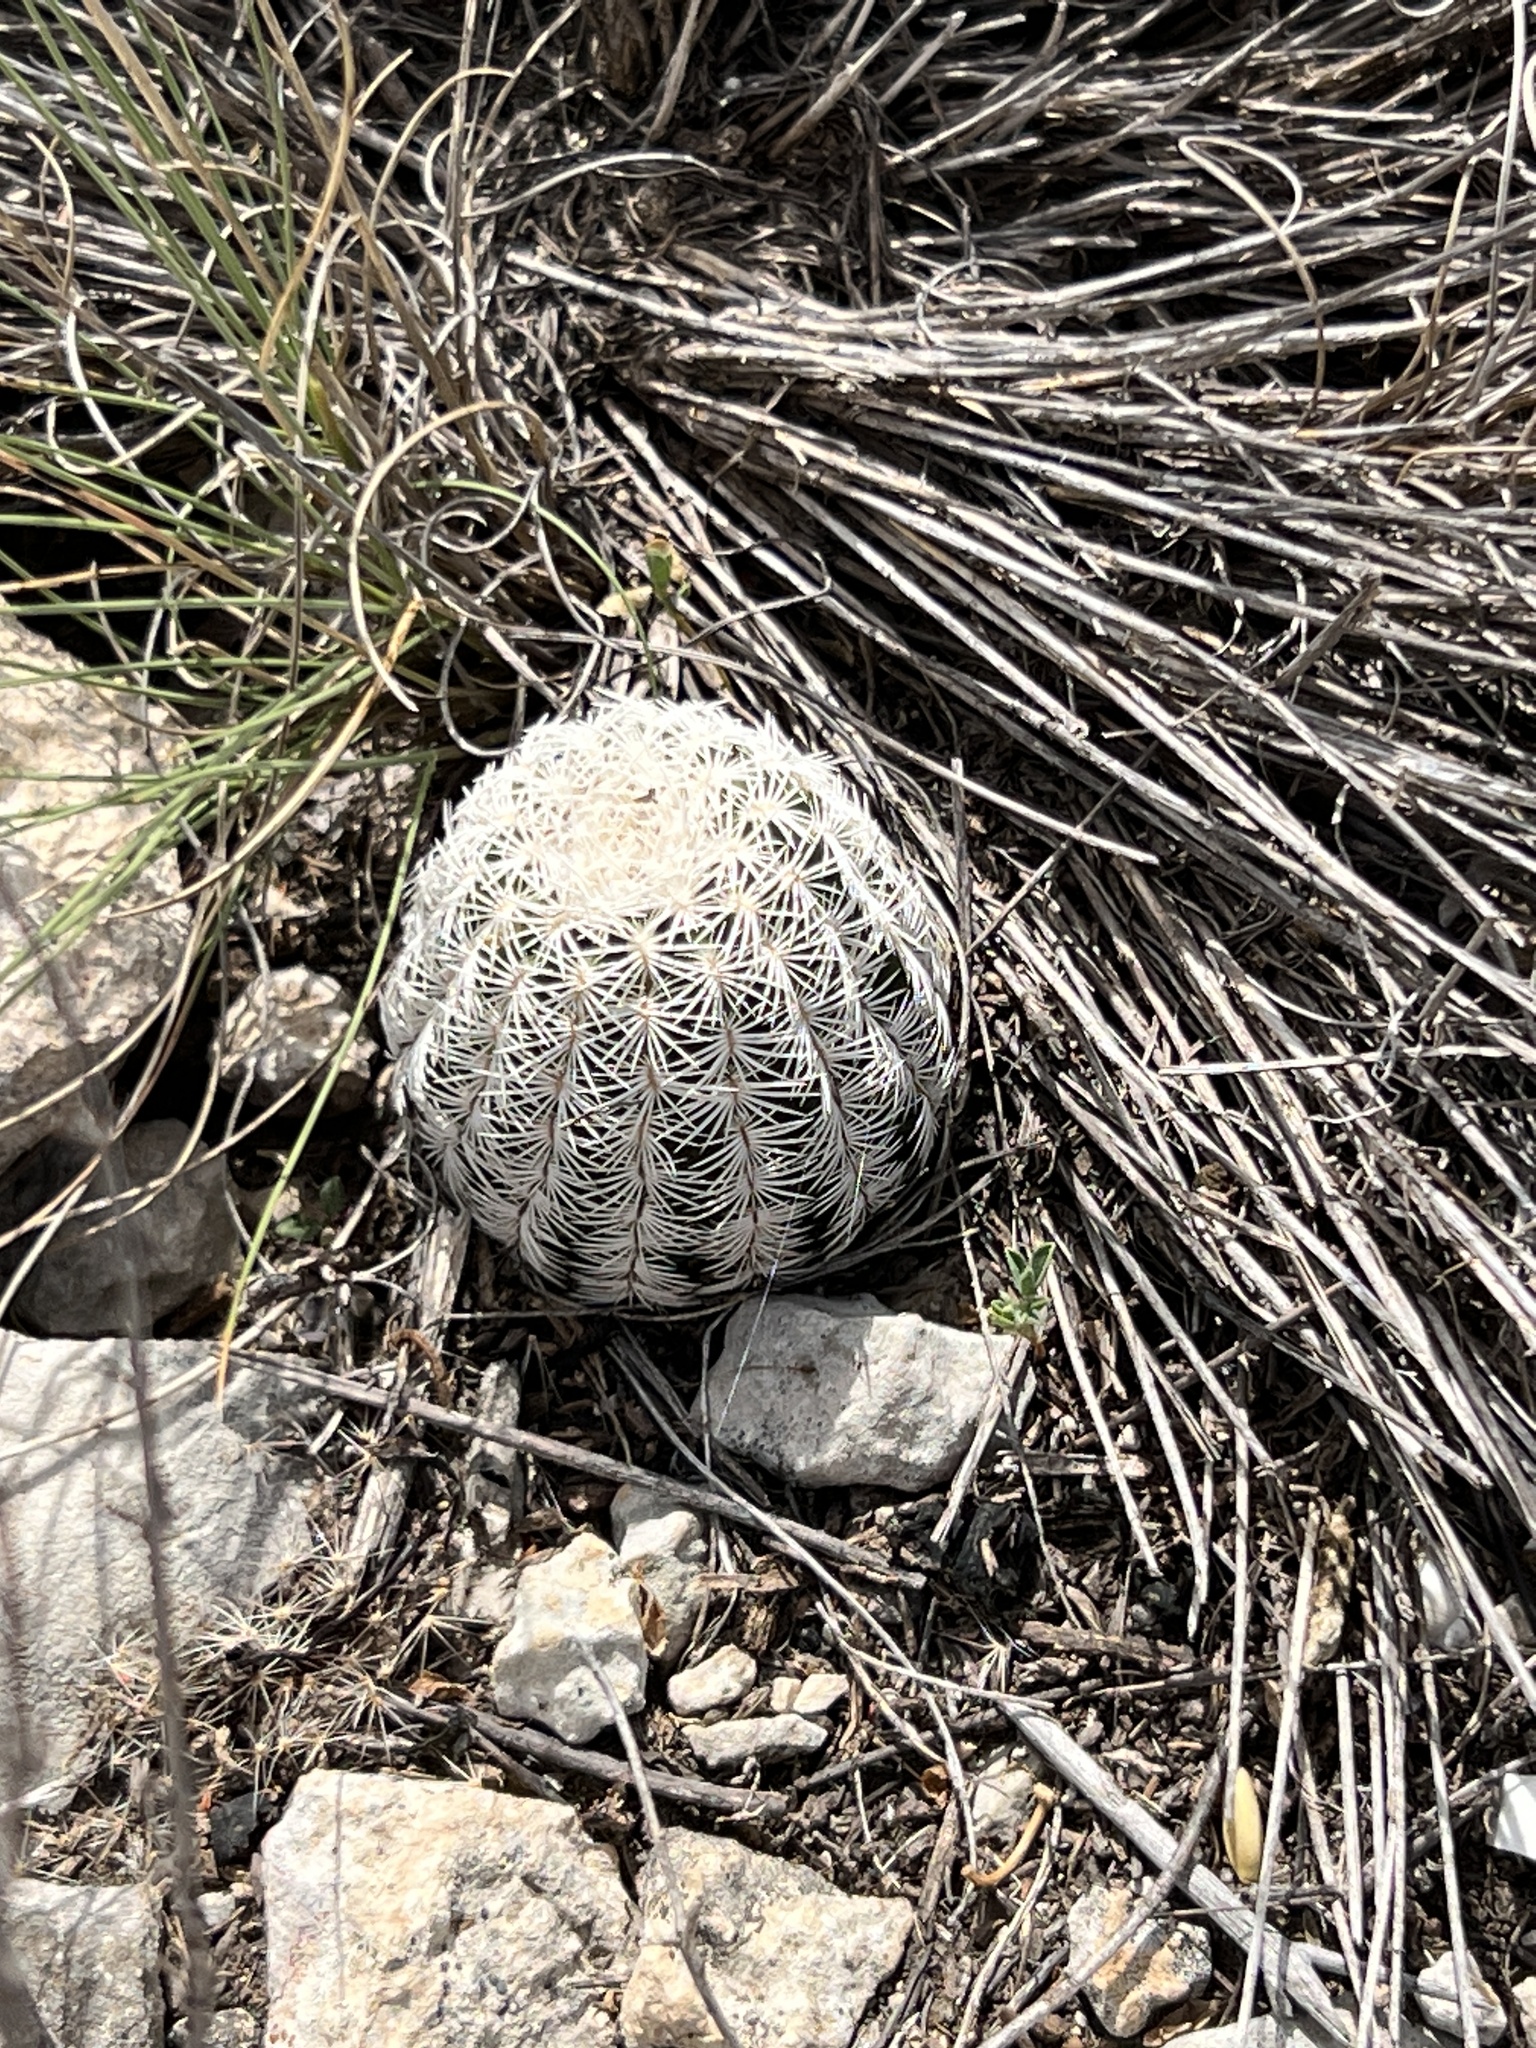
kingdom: Plantae
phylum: Tracheophyta
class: Magnoliopsida
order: Caryophyllales
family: Cactaceae
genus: Echinocereus
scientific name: Echinocereus reichenbachii
